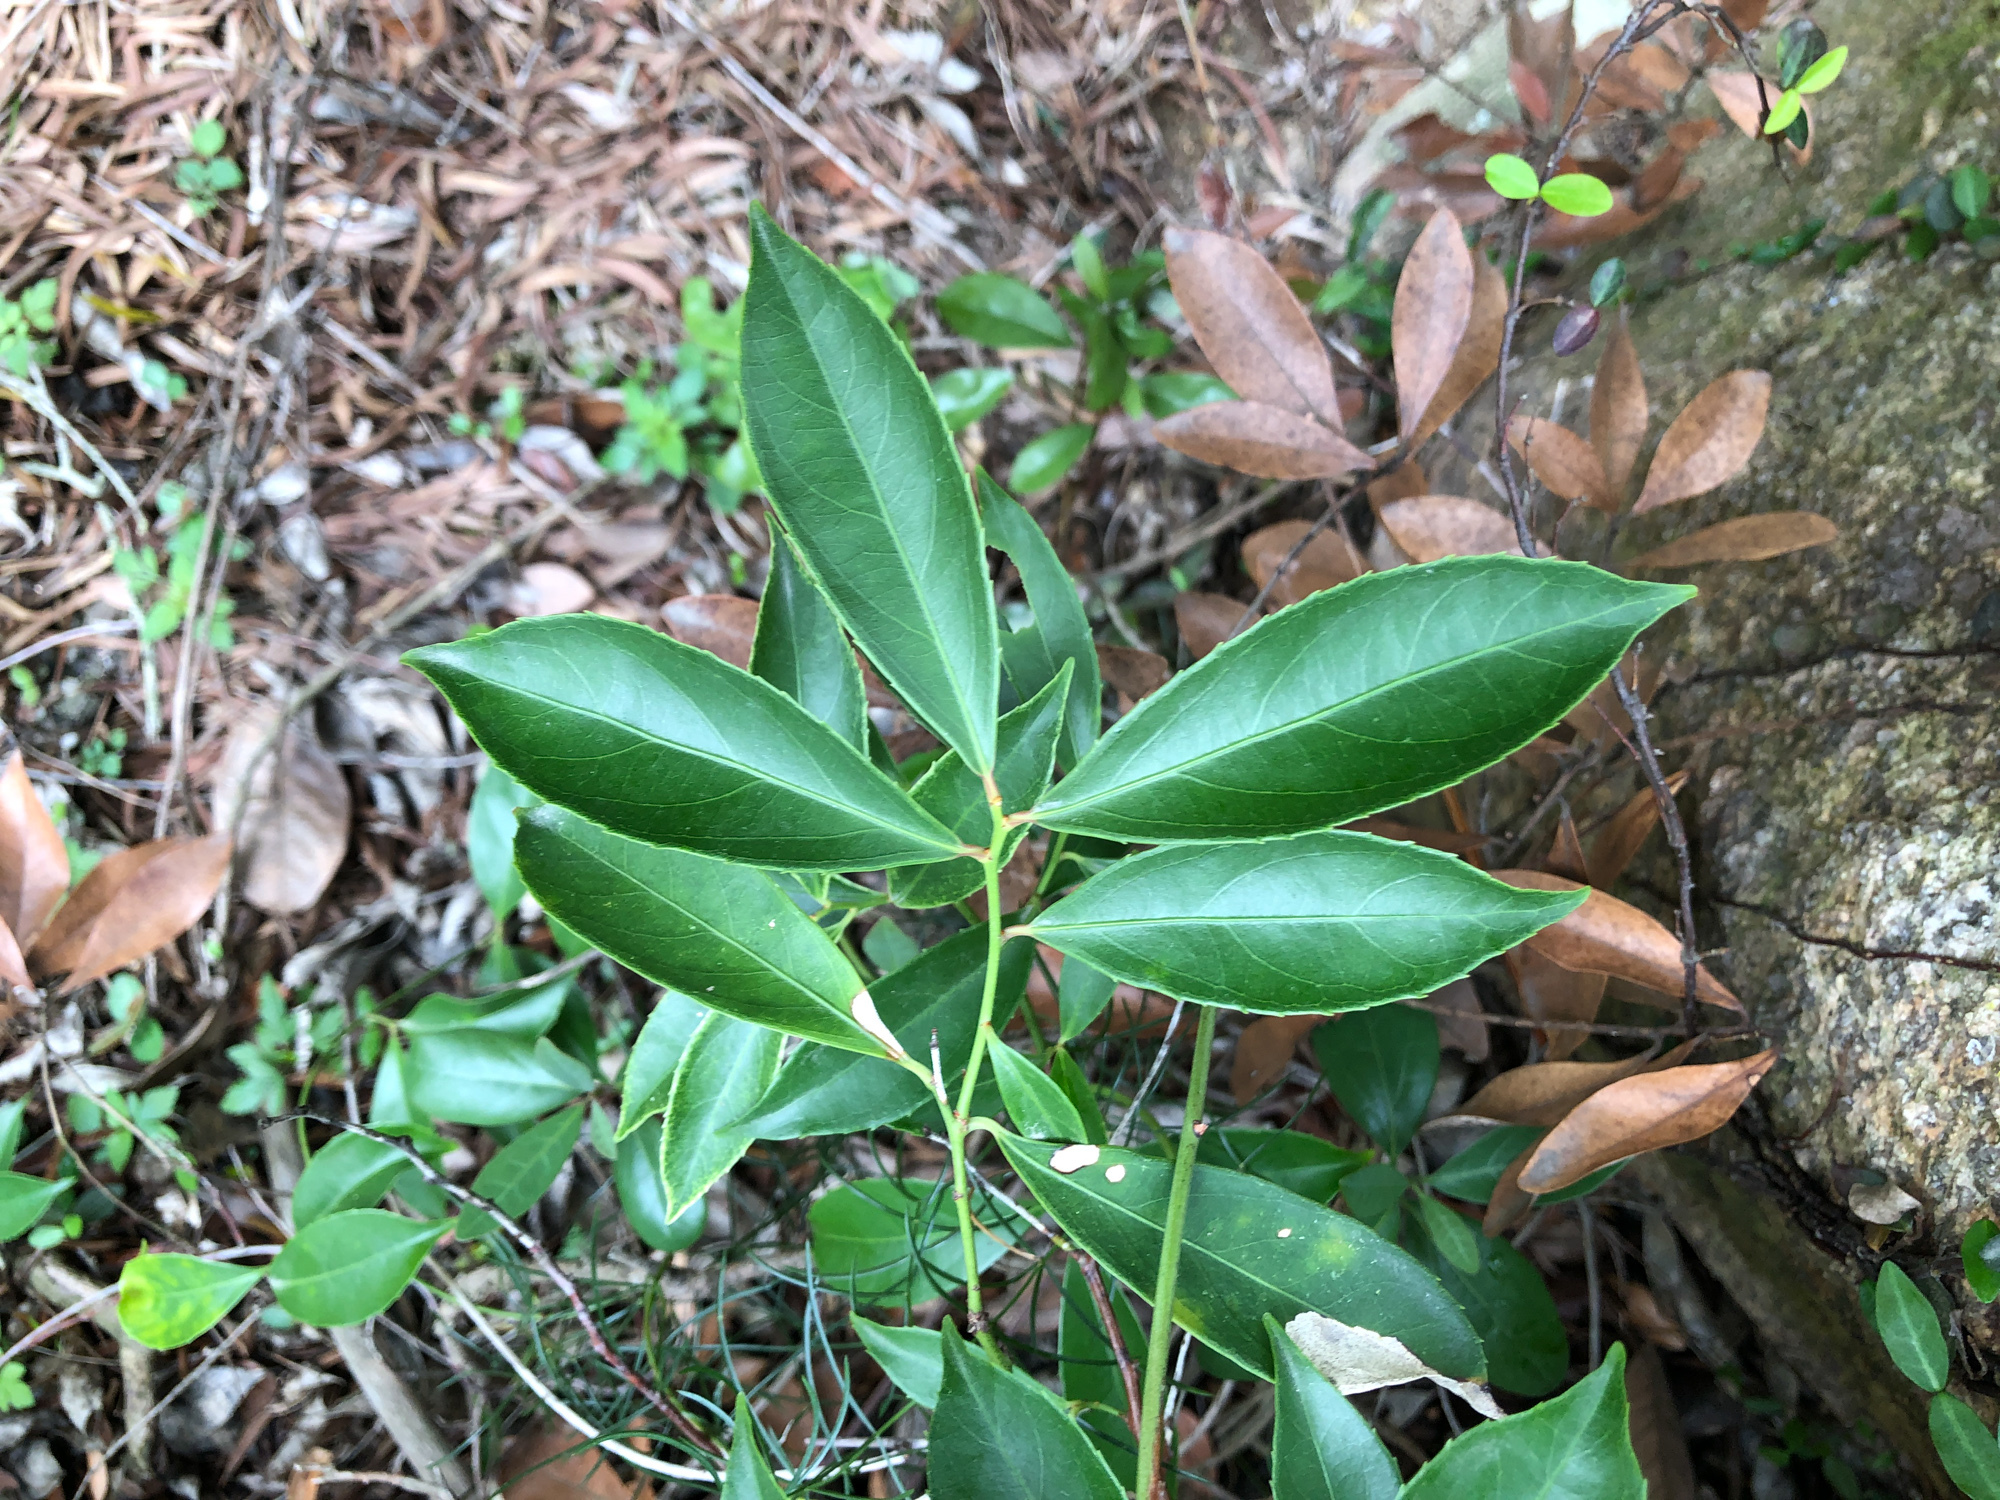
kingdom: Plantae
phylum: Tracheophyta
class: Magnoliopsida
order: Celastrales
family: Celastraceae
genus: Celastrus
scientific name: Celastrus hindsii
